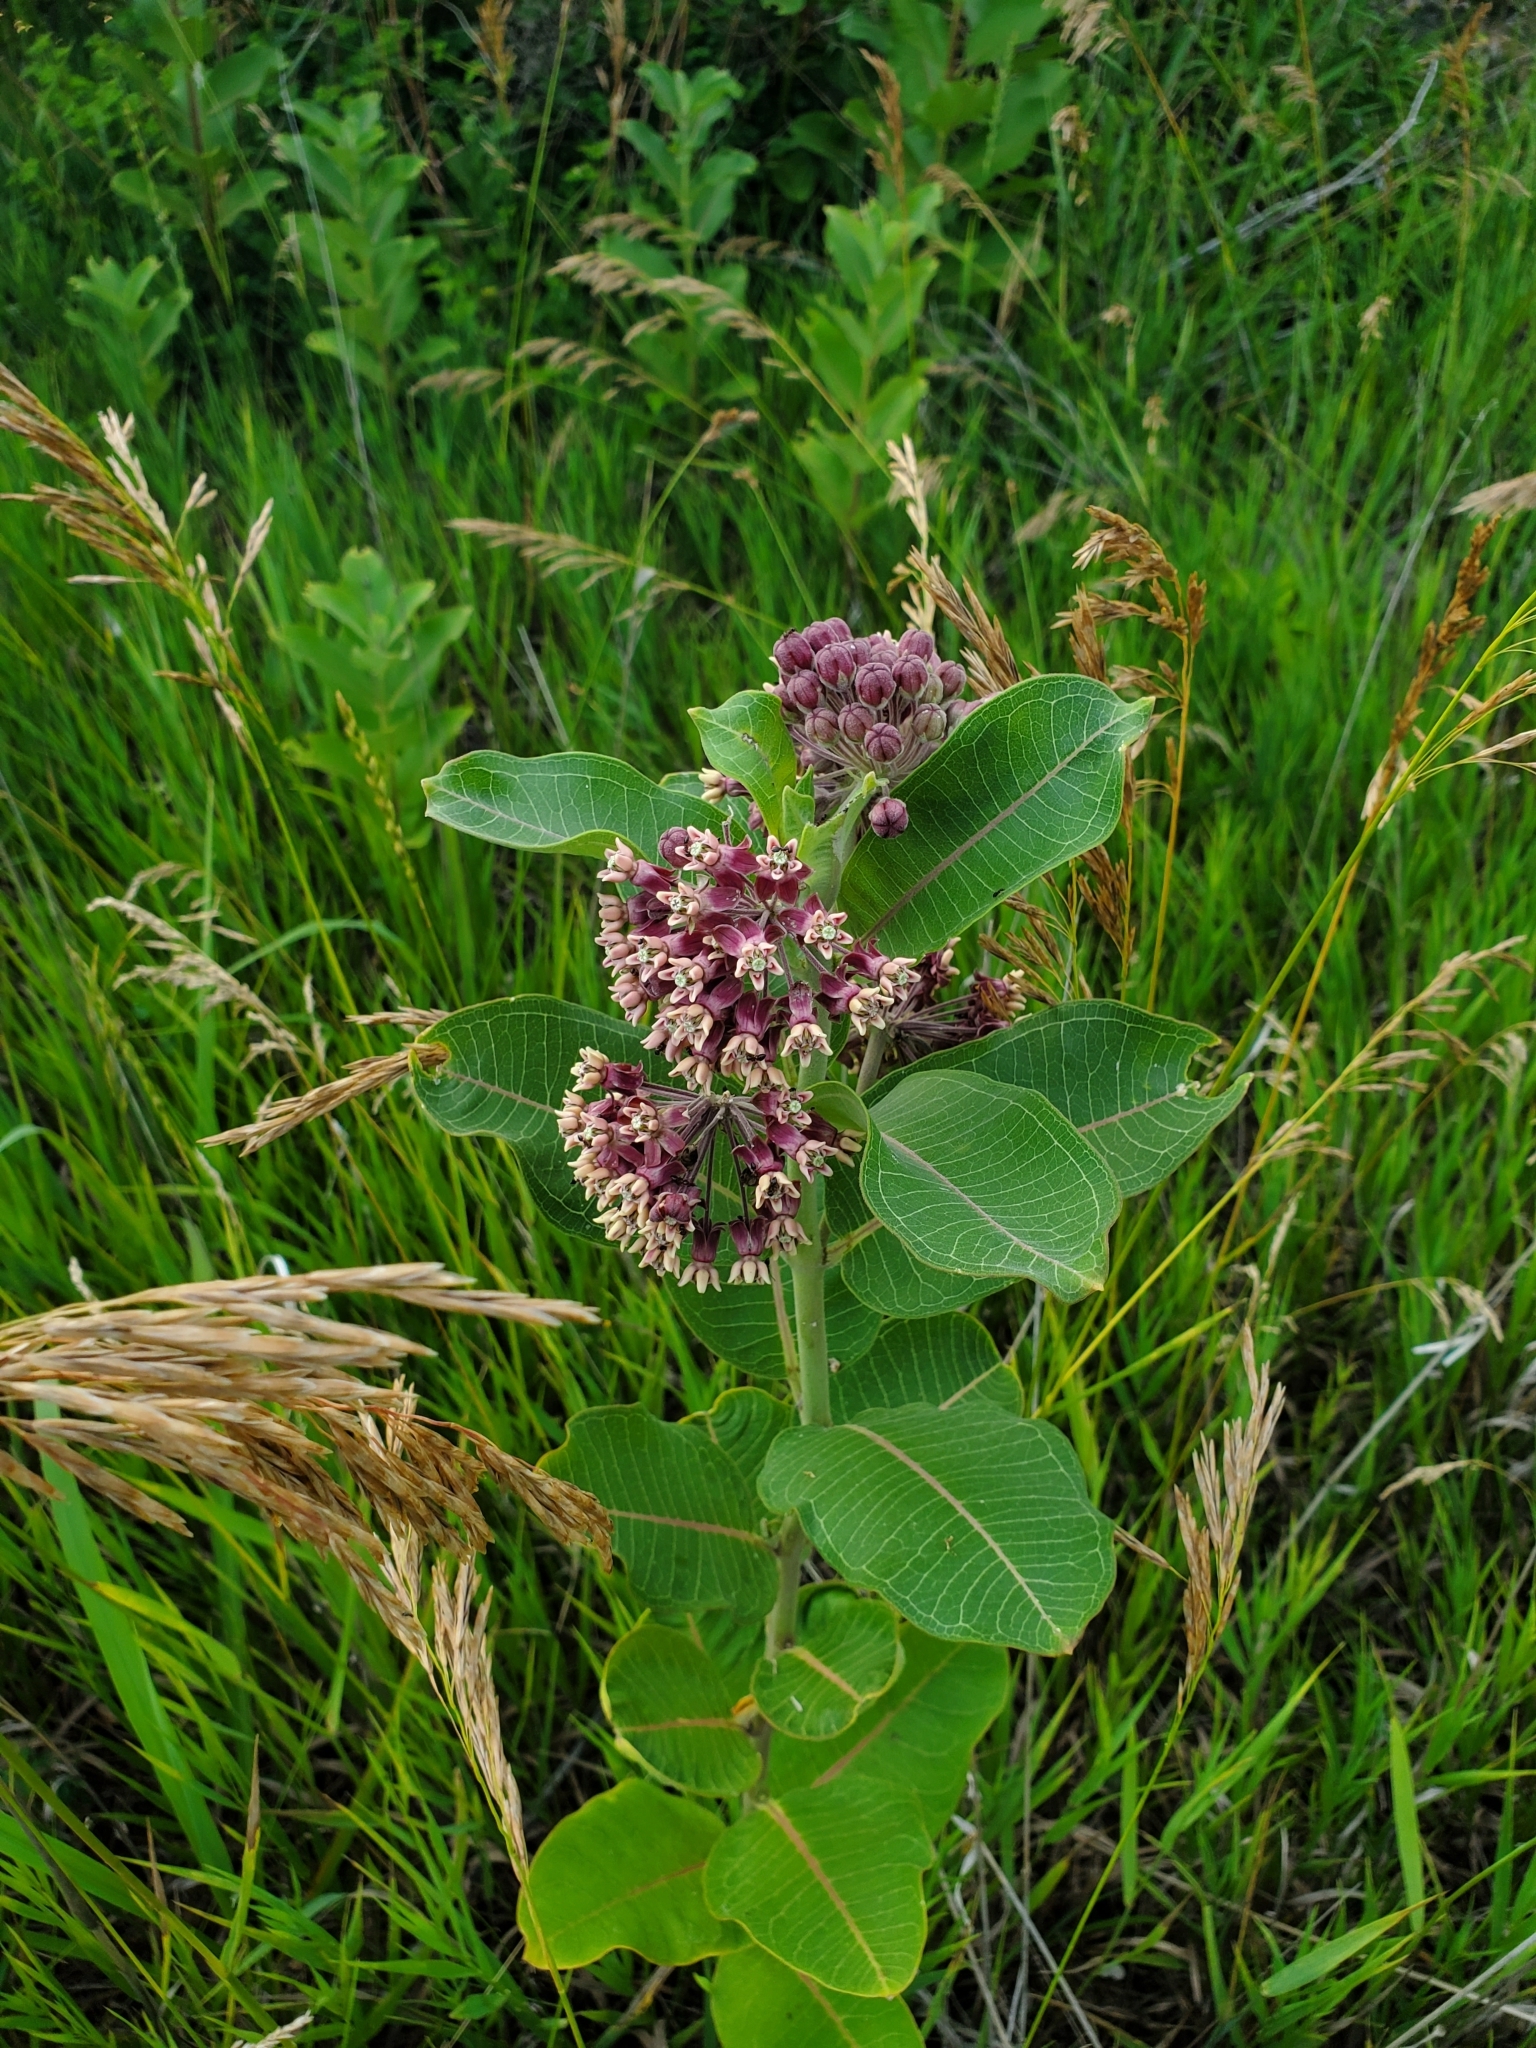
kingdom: Plantae
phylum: Tracheophyta
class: Magnoliopsida
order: Gentianales
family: Apocynaceae
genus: Asclepias
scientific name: Asclepias syriaca
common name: Common milkweed
